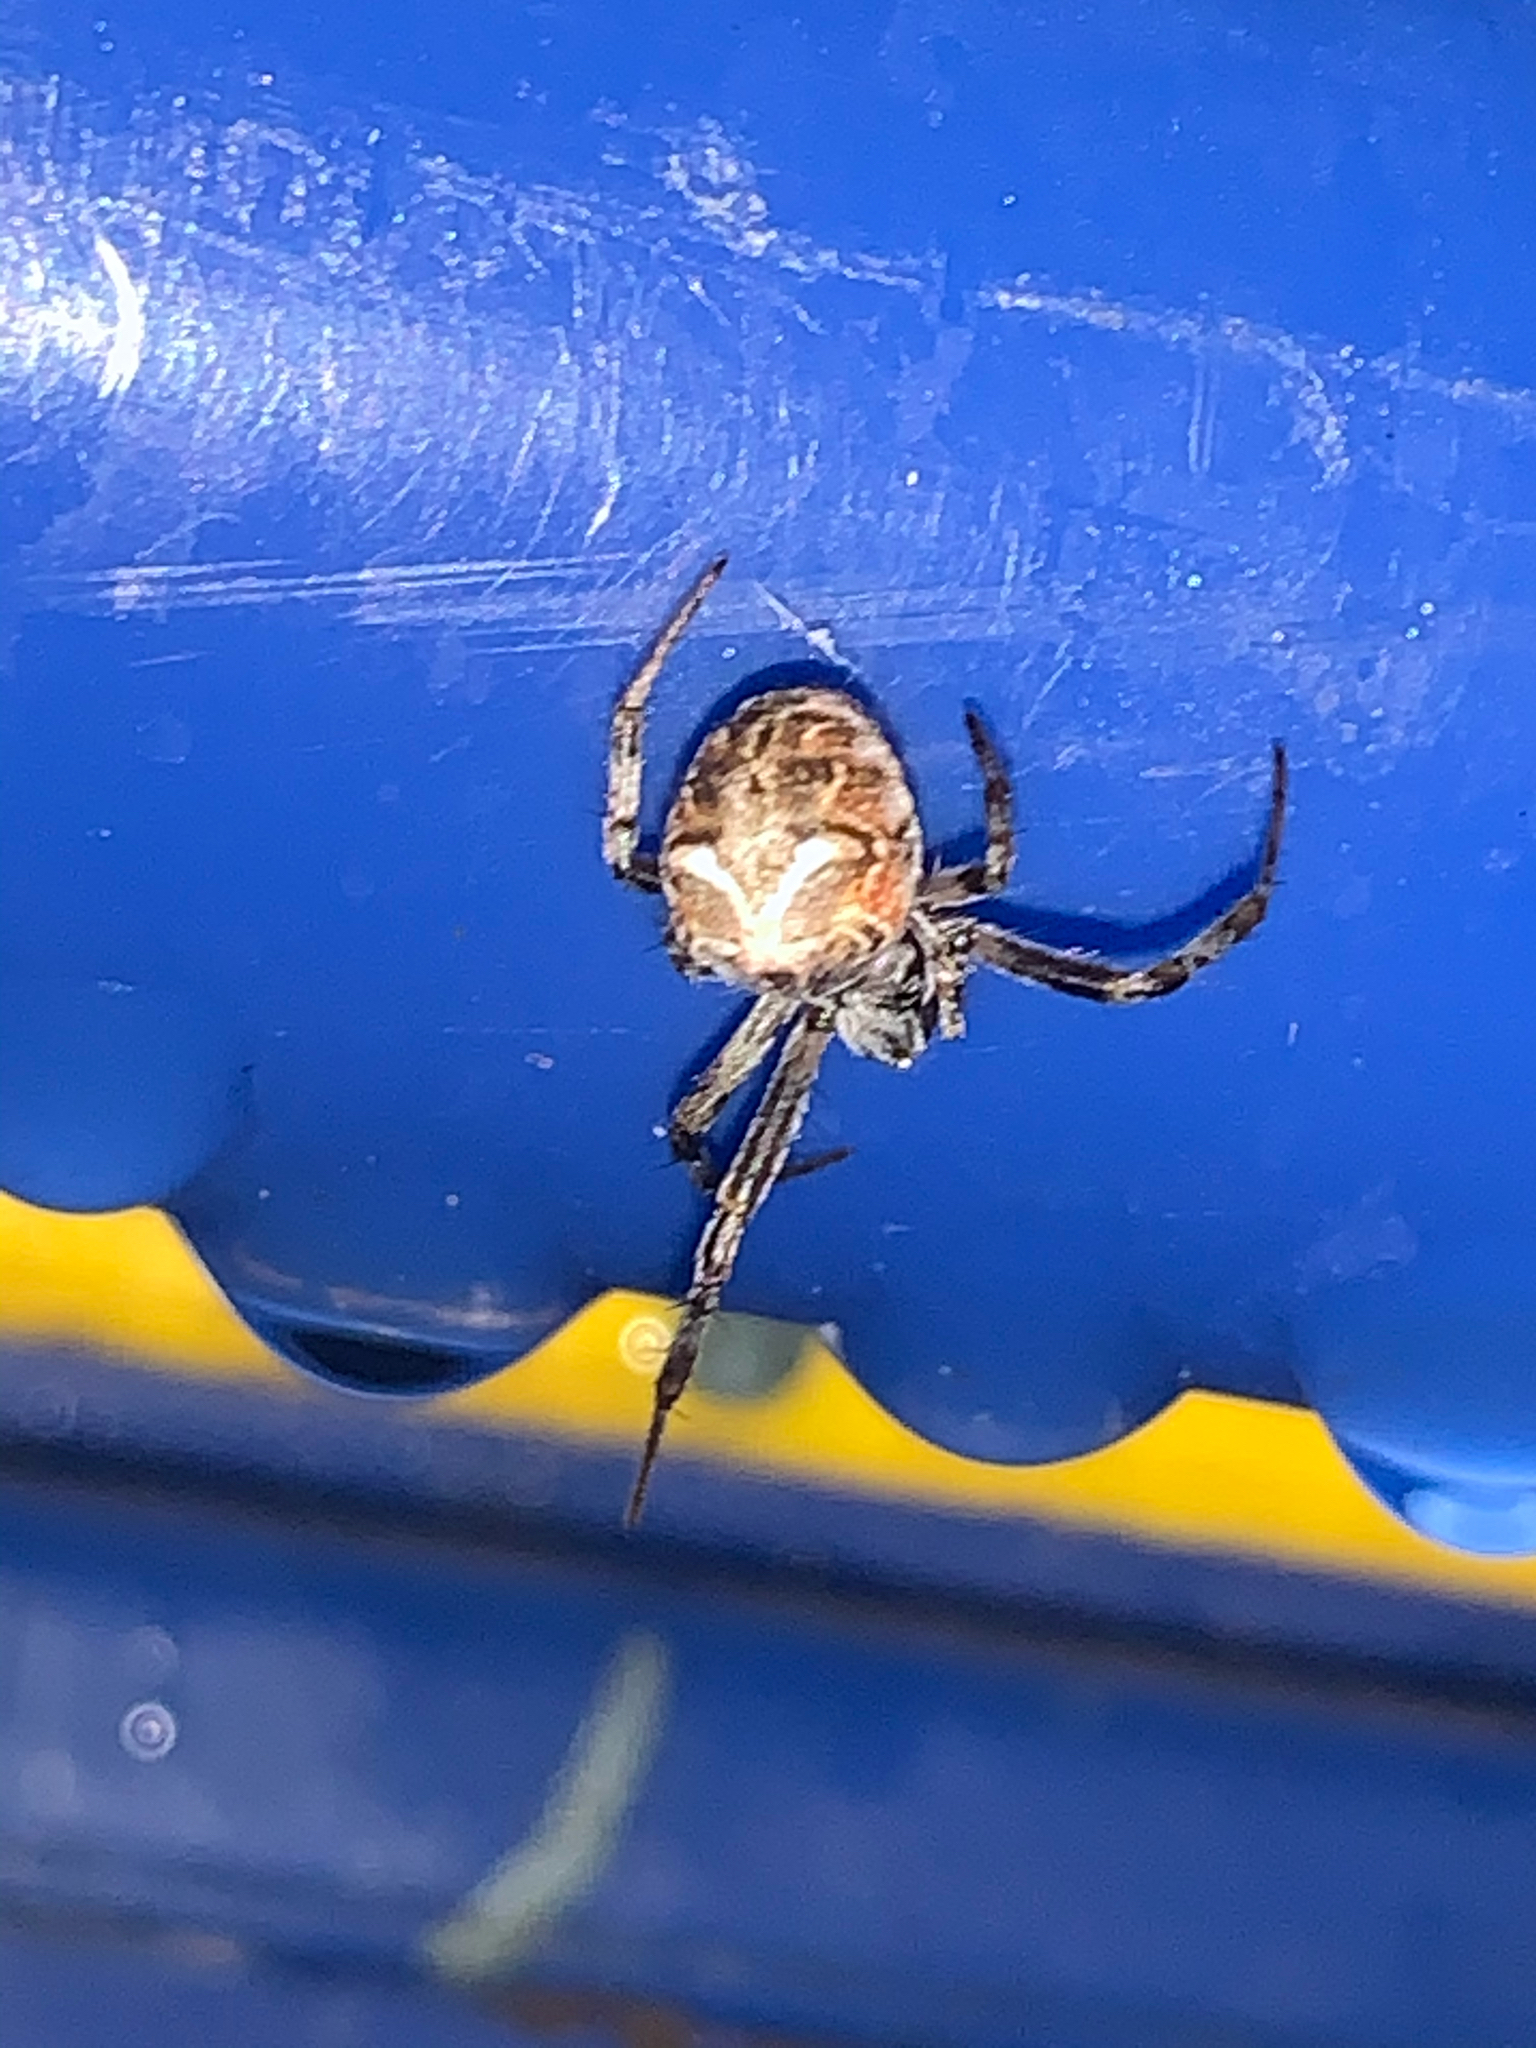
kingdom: Animalia
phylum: Arthropoda
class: Arachnida
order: Araneae
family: Araneidae
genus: Metepeira
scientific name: Metepeira labyrinthea
